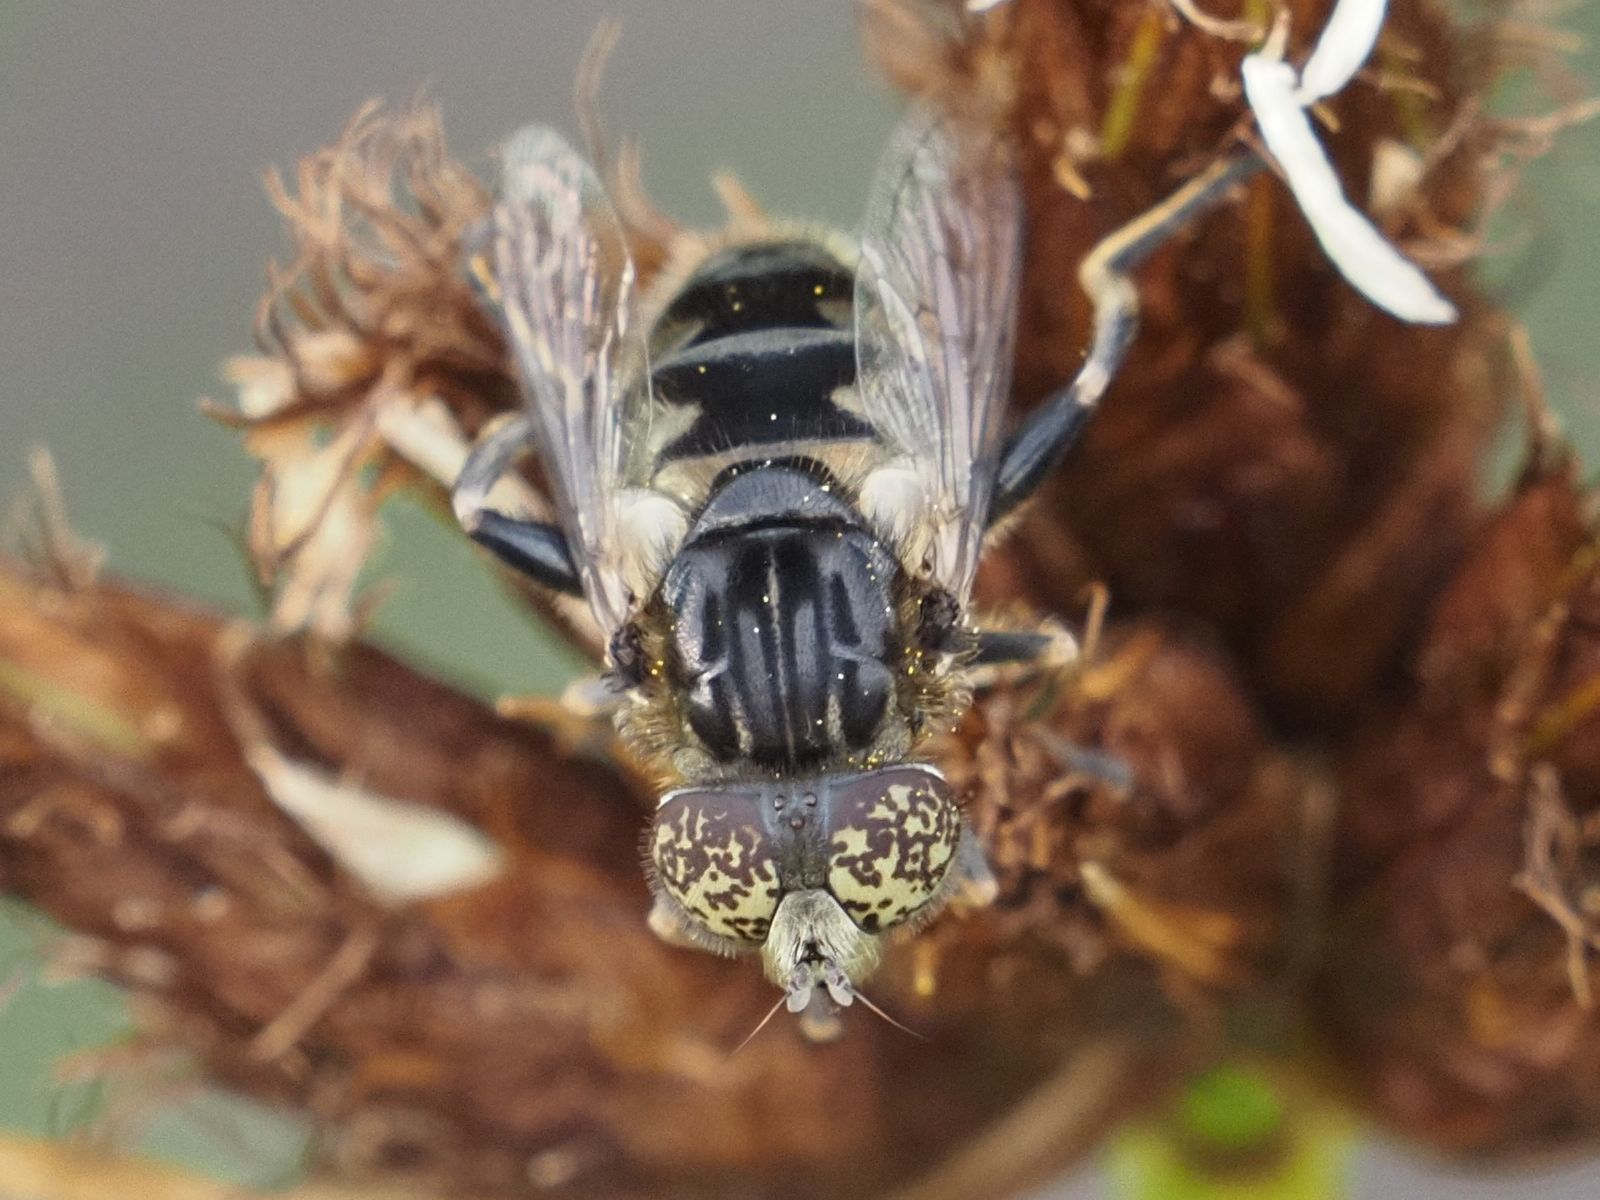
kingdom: Animalia
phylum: Arthropoda
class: Insecta
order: Diptera
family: Syrphidae
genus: Eristalinus
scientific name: Eristalinus sepulchralis
